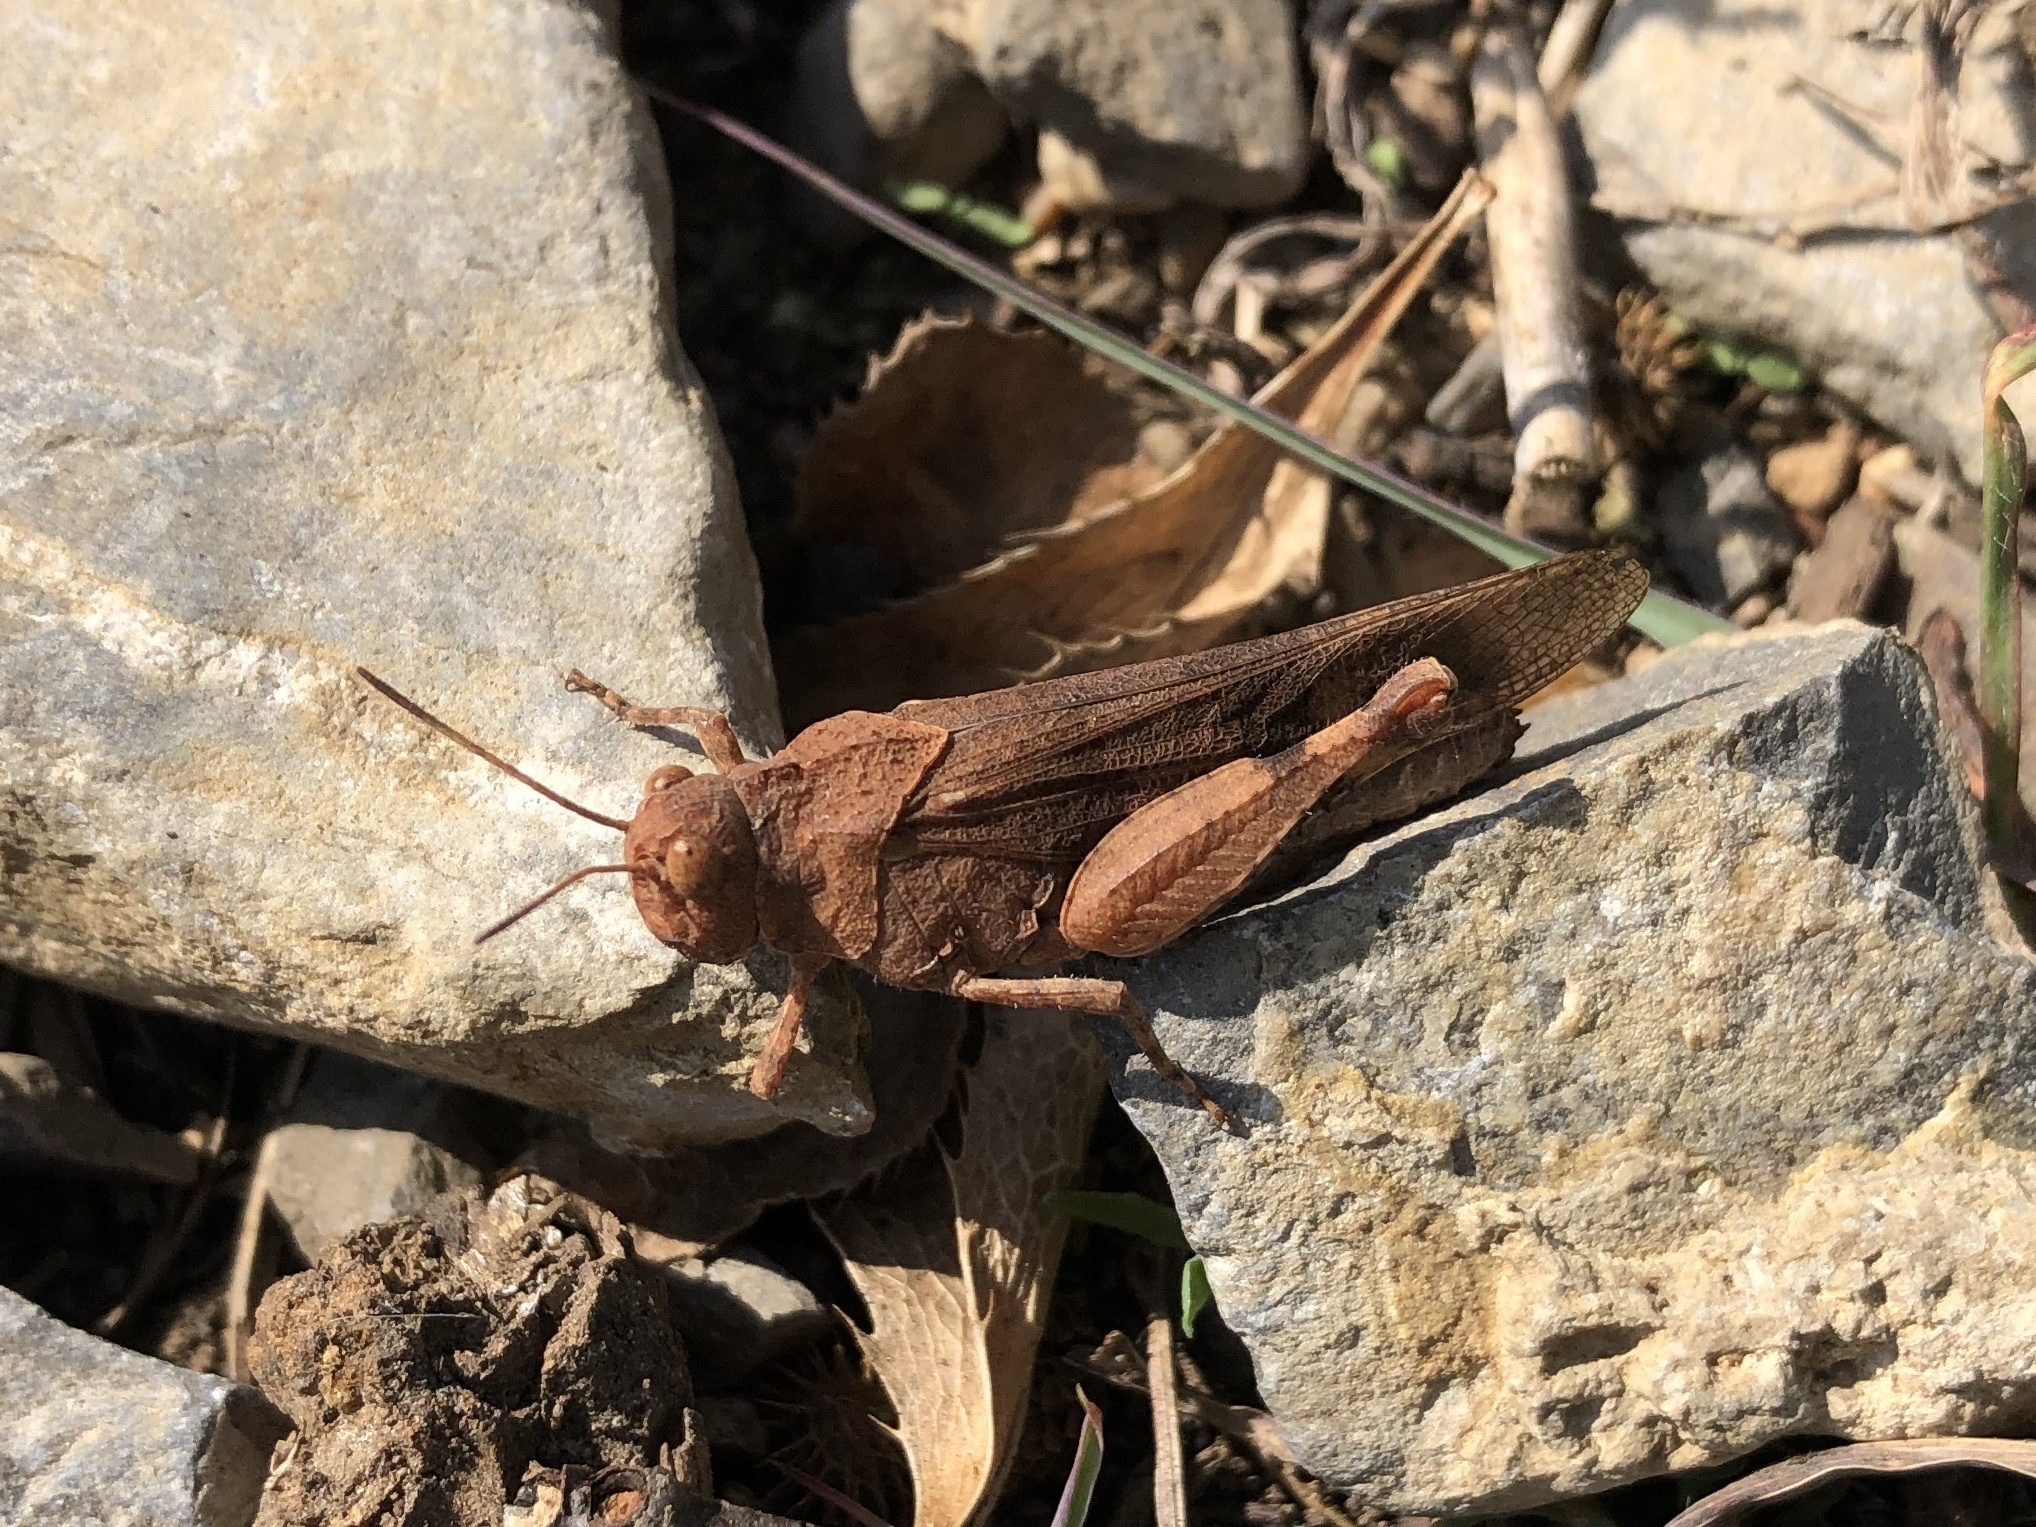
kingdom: Animalia
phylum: Arthropoda
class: Insecta
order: Orthoptera
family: Acrididae
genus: Oedipoda
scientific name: Oedipoda caerulescens
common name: Blue-winged grasshopper
